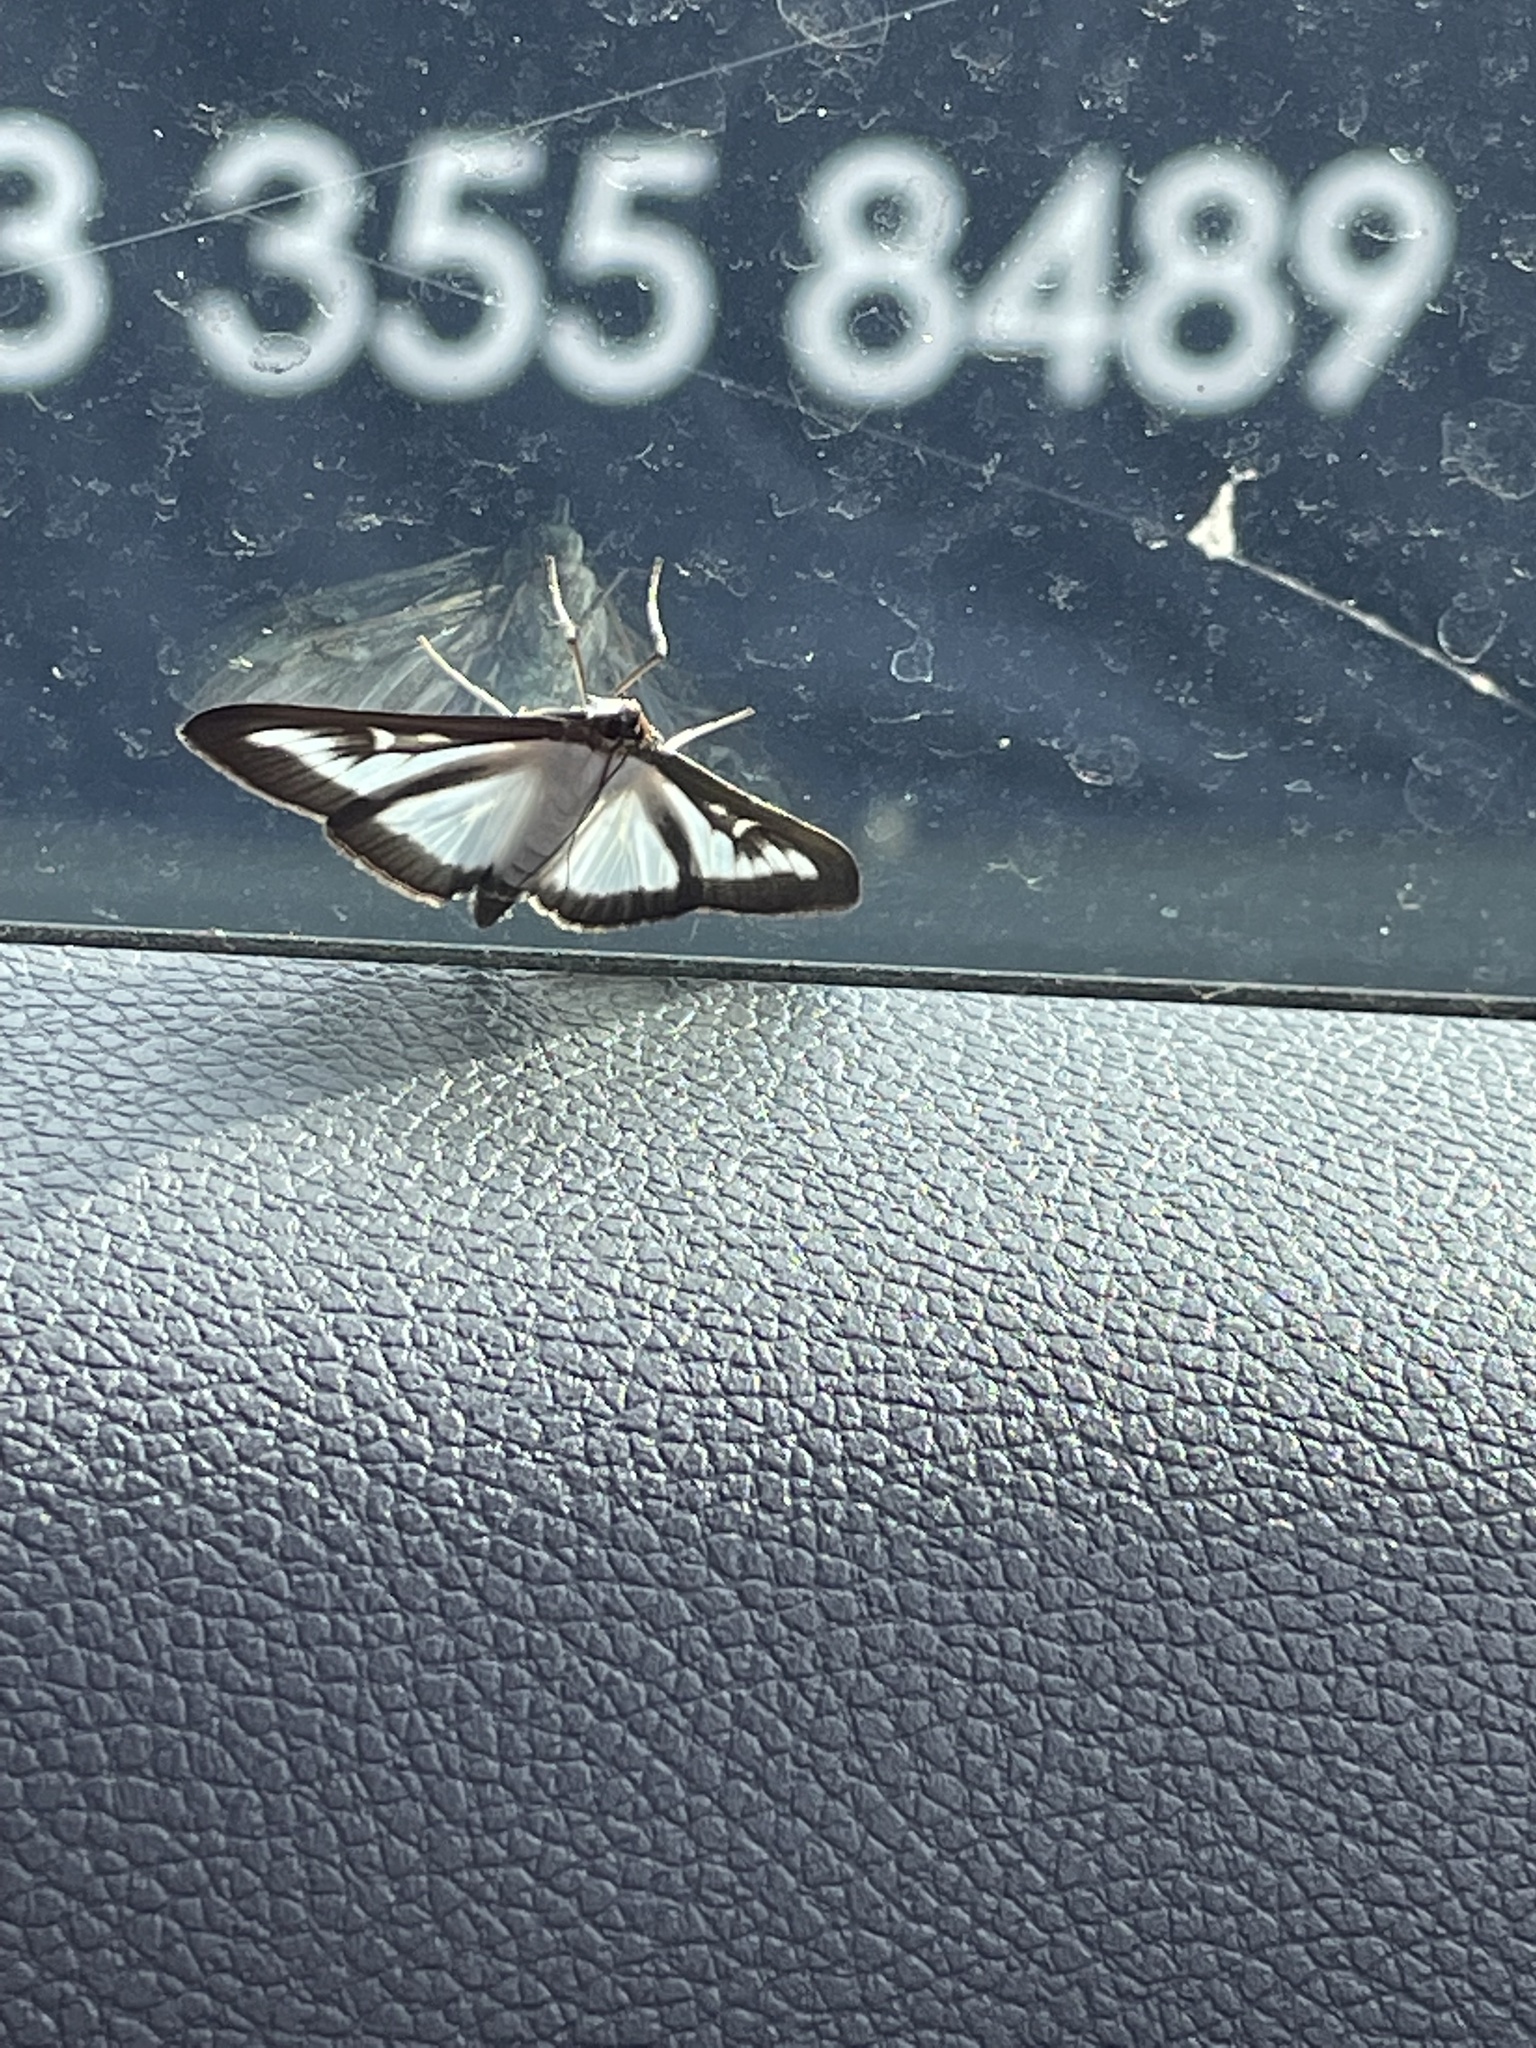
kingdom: Animalia
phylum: Arthropoda
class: Insecta
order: Lepidoptera
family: Crambidae
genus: Cydalima
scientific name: Cydalima perspectalis
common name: Box tree moth
